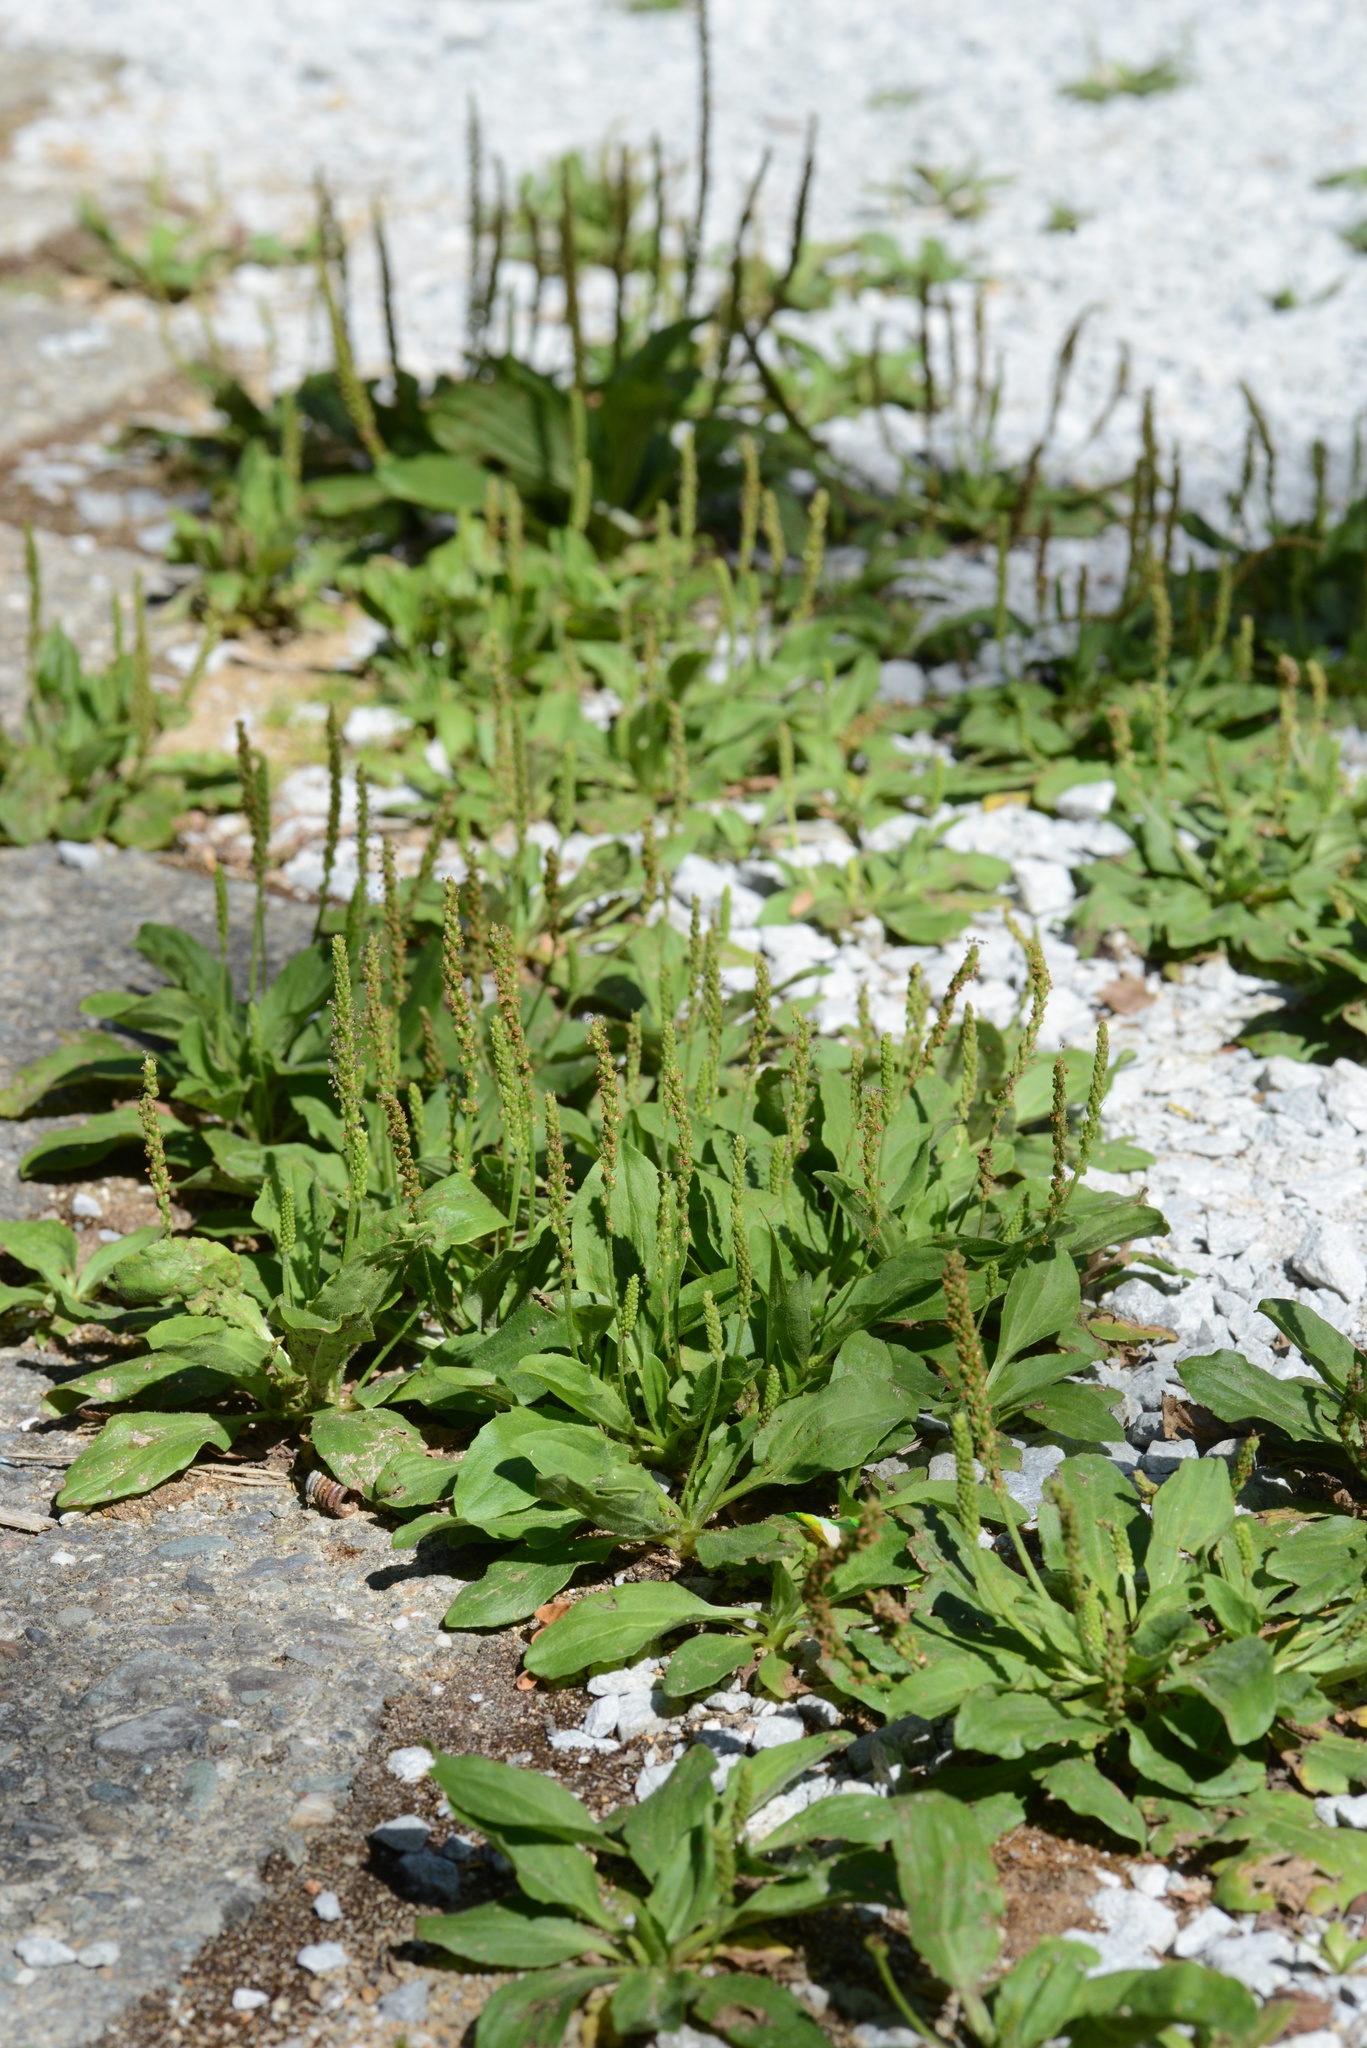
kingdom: Plantae
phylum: Tracheophyta
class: Magnoliopsida
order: Lamiales
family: Plantaginaceae
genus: Plantago
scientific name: Plantago major
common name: Common plantain
